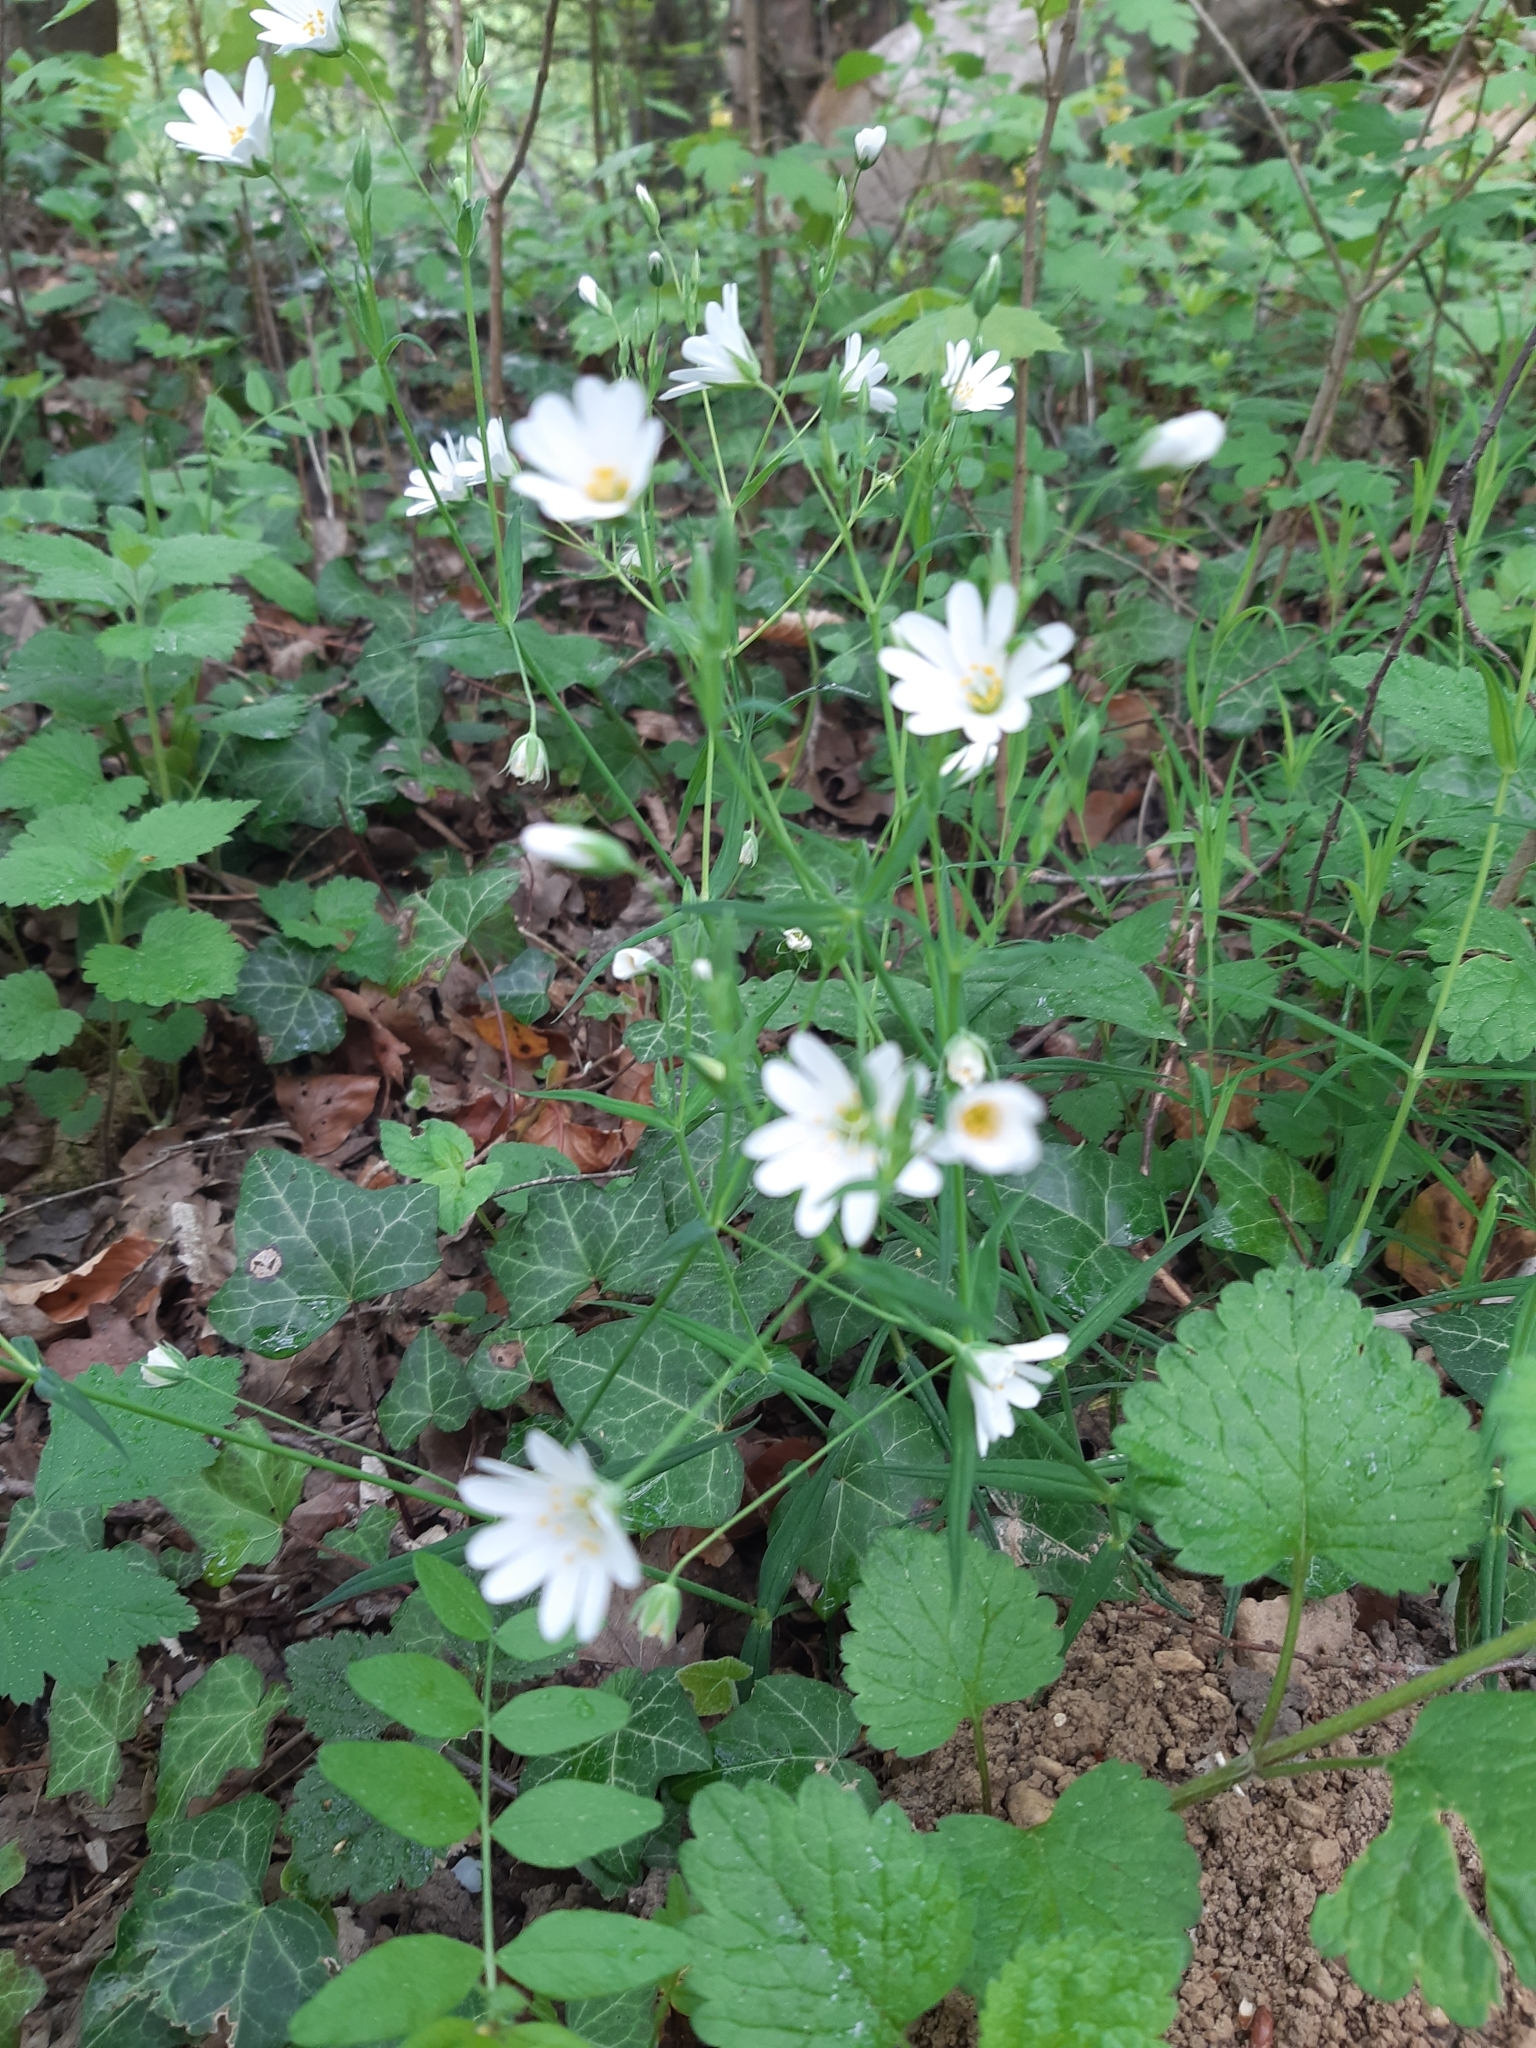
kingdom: Plantae
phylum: Tracheophyta
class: Magnoliopsida
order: Caryophyllales
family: Caryophyllaceae
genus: Rabelera
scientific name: Rabelera holostea
